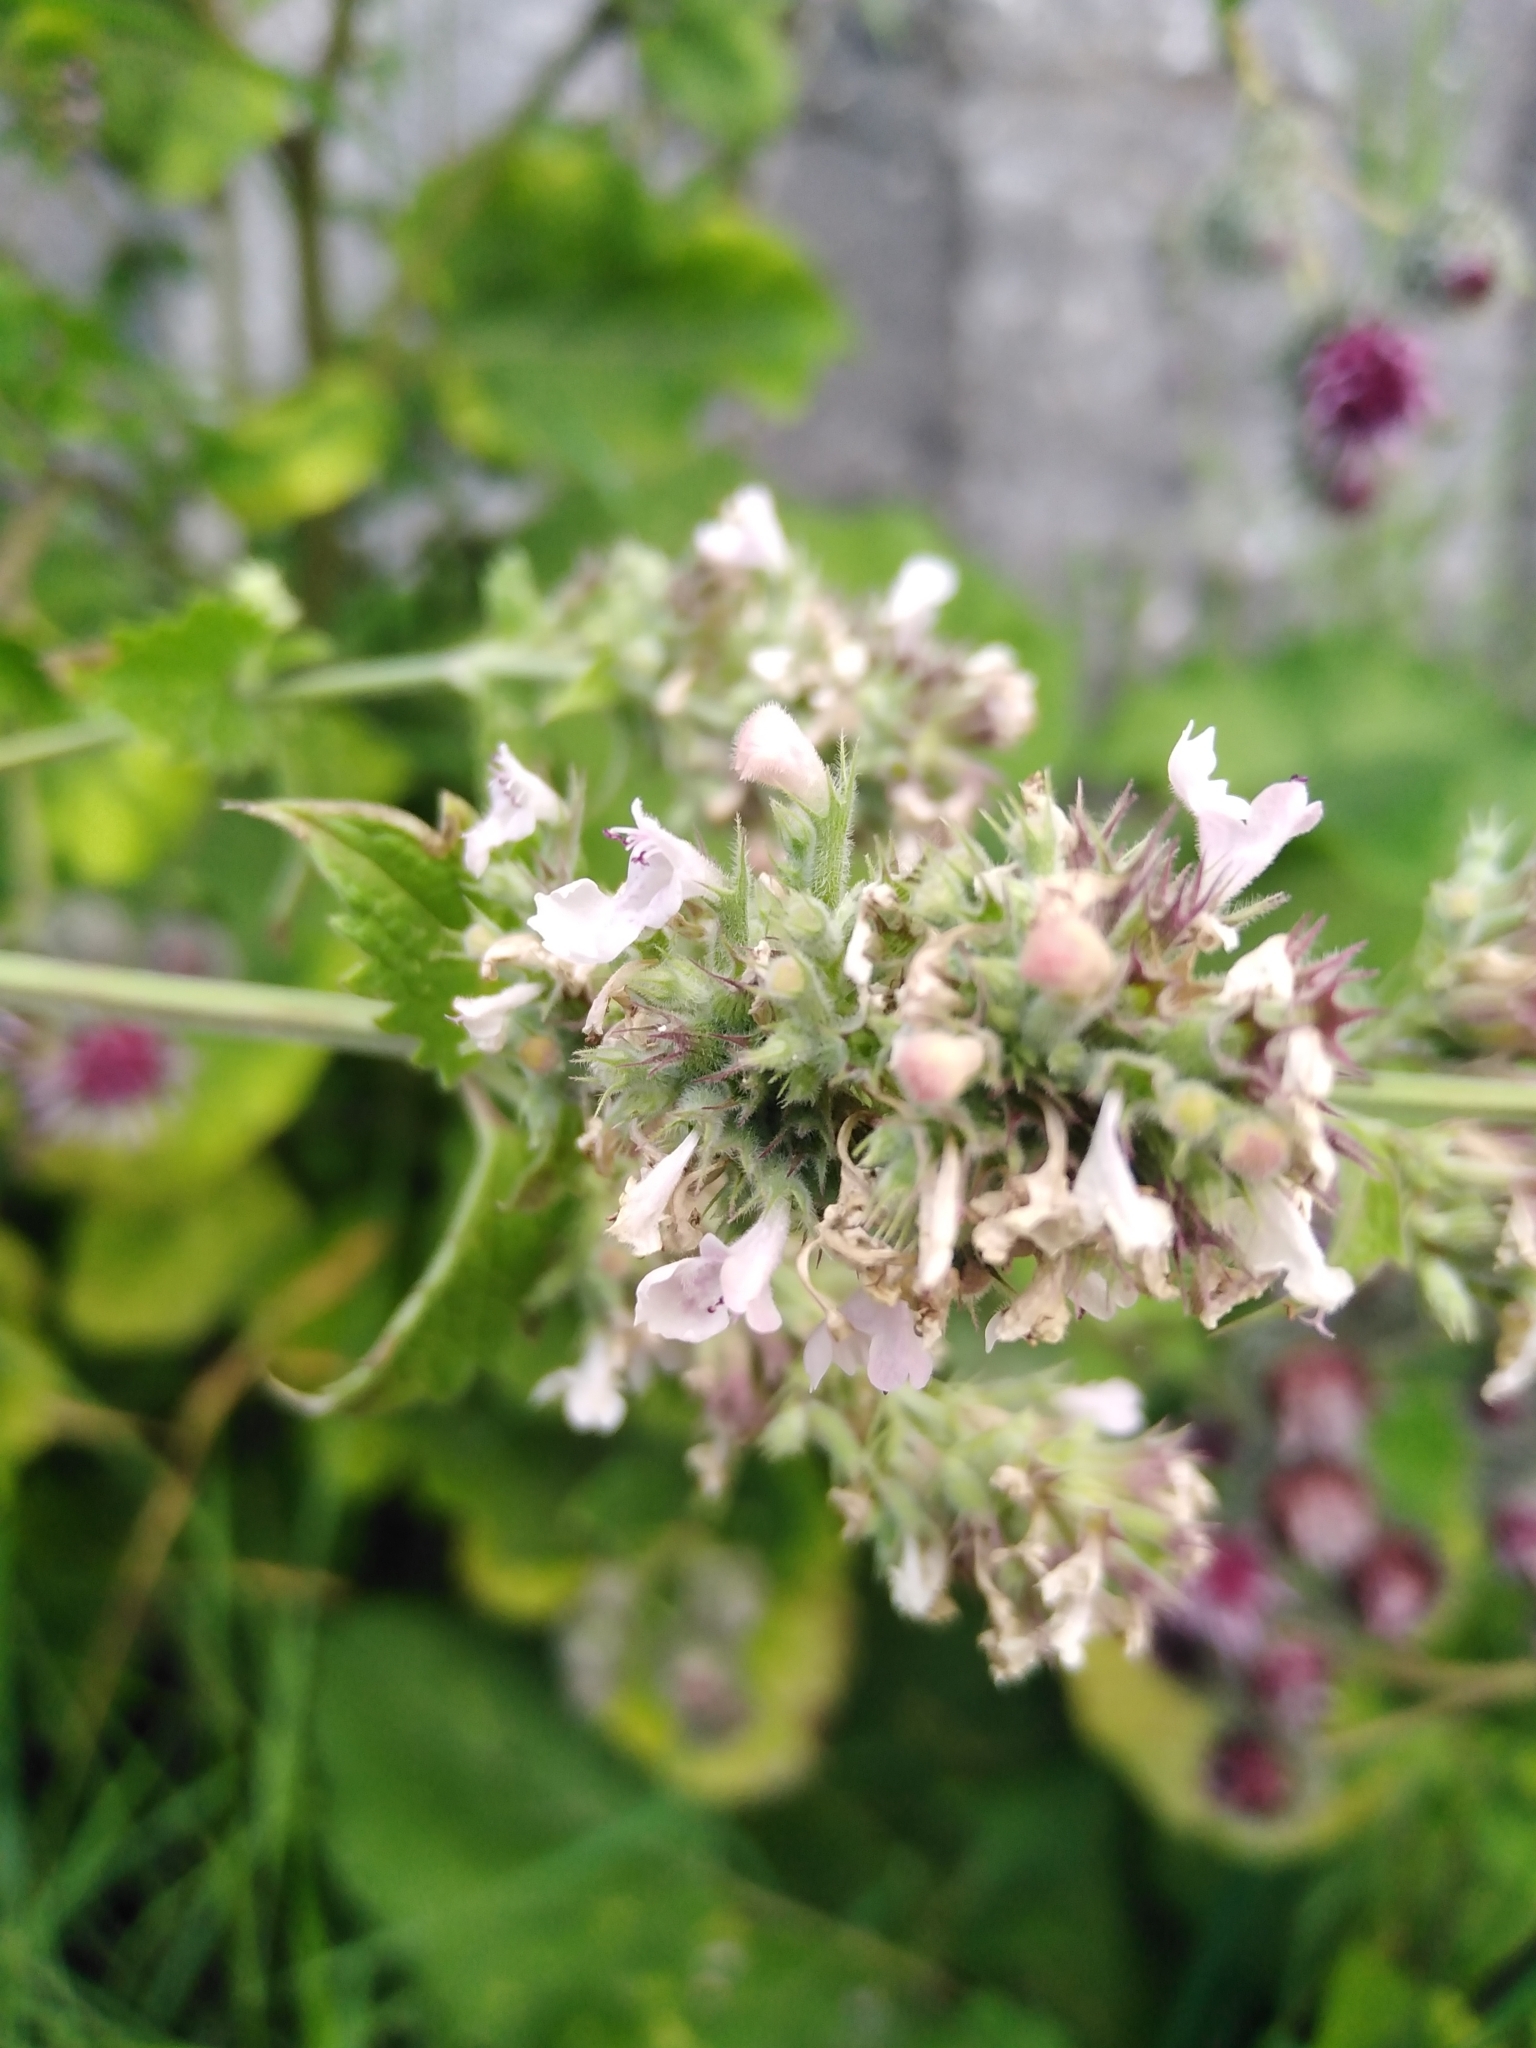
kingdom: Plantae
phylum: Tracheophyta
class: Magnoliopsida
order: Lamiales
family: Lamiaceae
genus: Ballota
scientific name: Ballota nigra
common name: Black horehound
